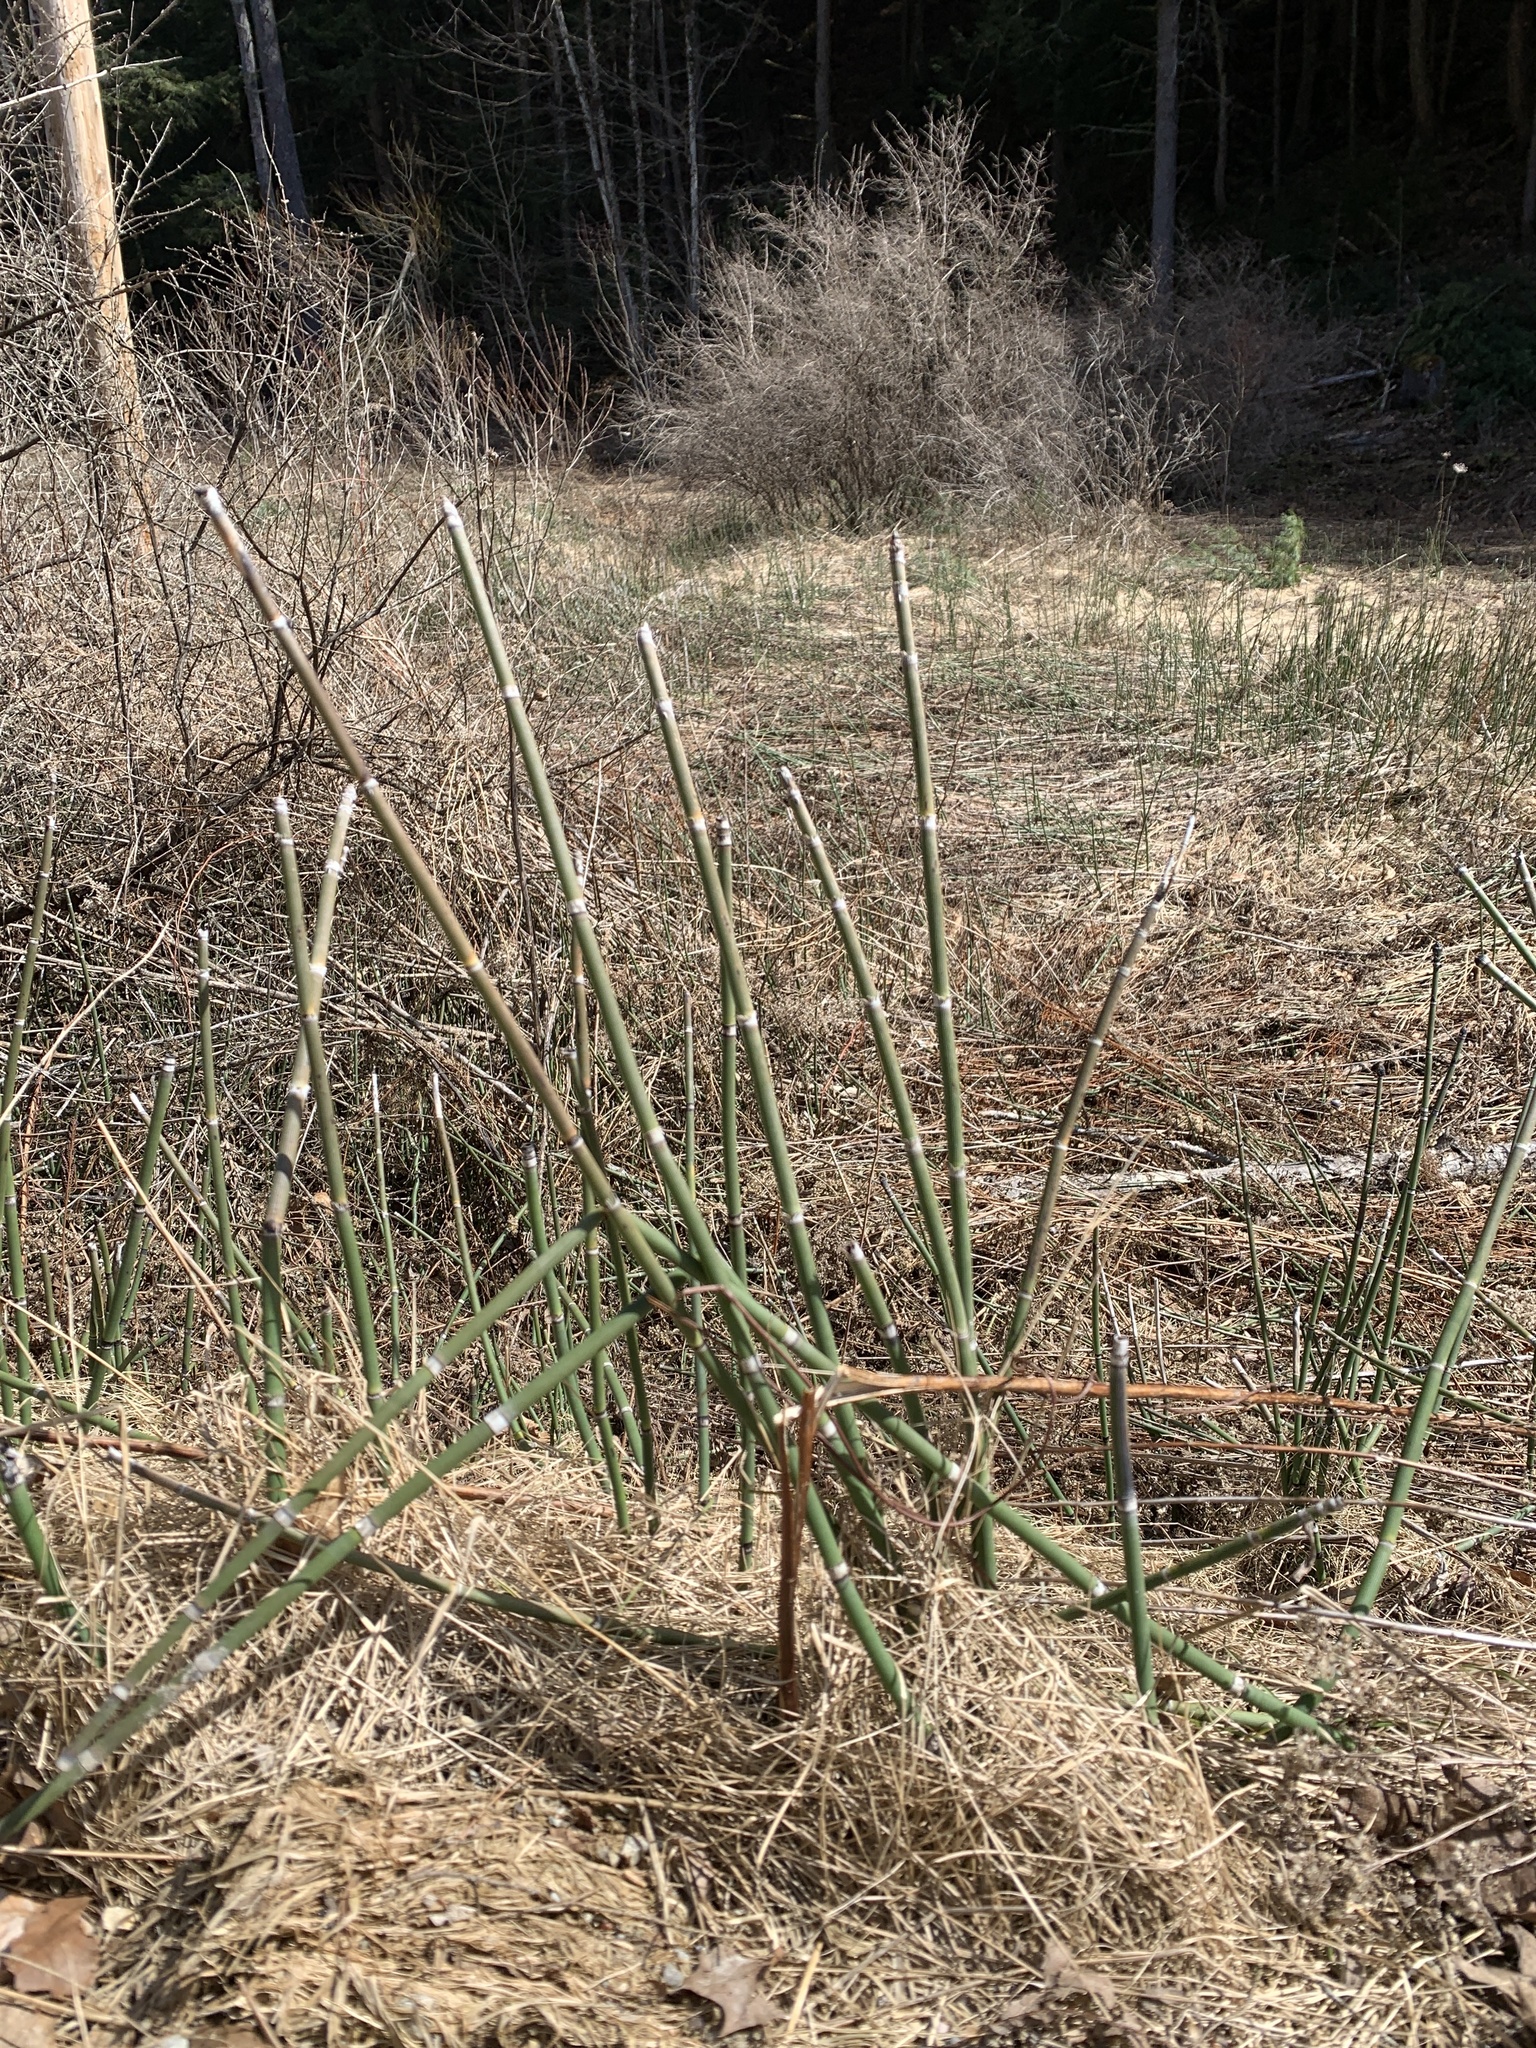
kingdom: Plantae
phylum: Tracheophyta
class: Polypodiopsida
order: Equisetales
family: Equisetaceae
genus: Equisetum
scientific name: Equisetum hyemale
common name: Rough horsetail
